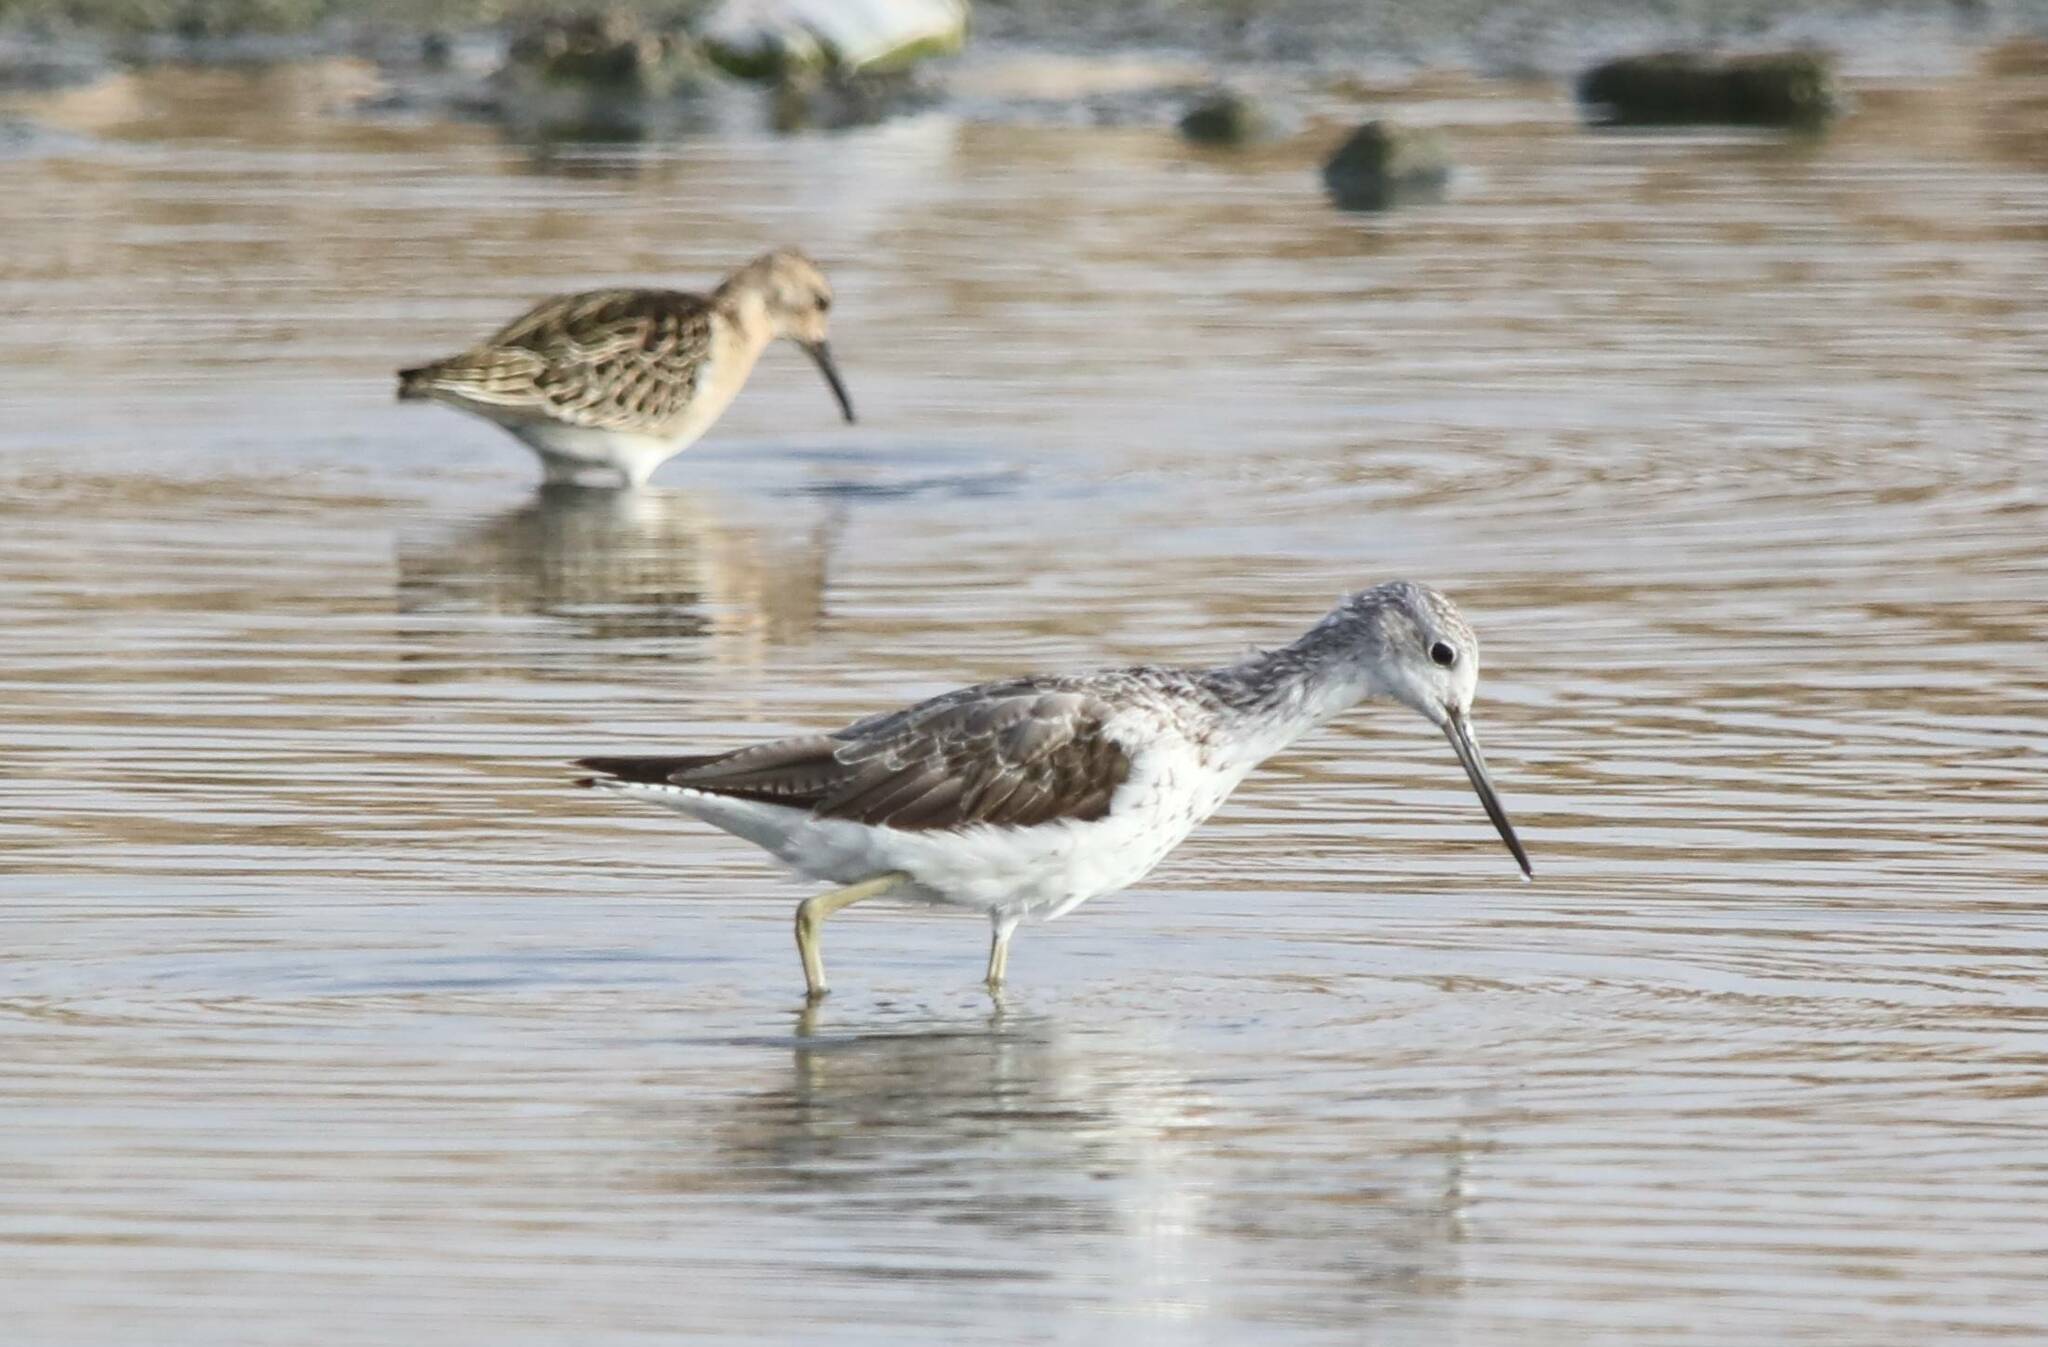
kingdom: Animalia
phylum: Chordata
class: Aves
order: Charadriiformes
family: Scolopacidae
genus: Tringa
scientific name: Tringa nebularia
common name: Common greenshank
